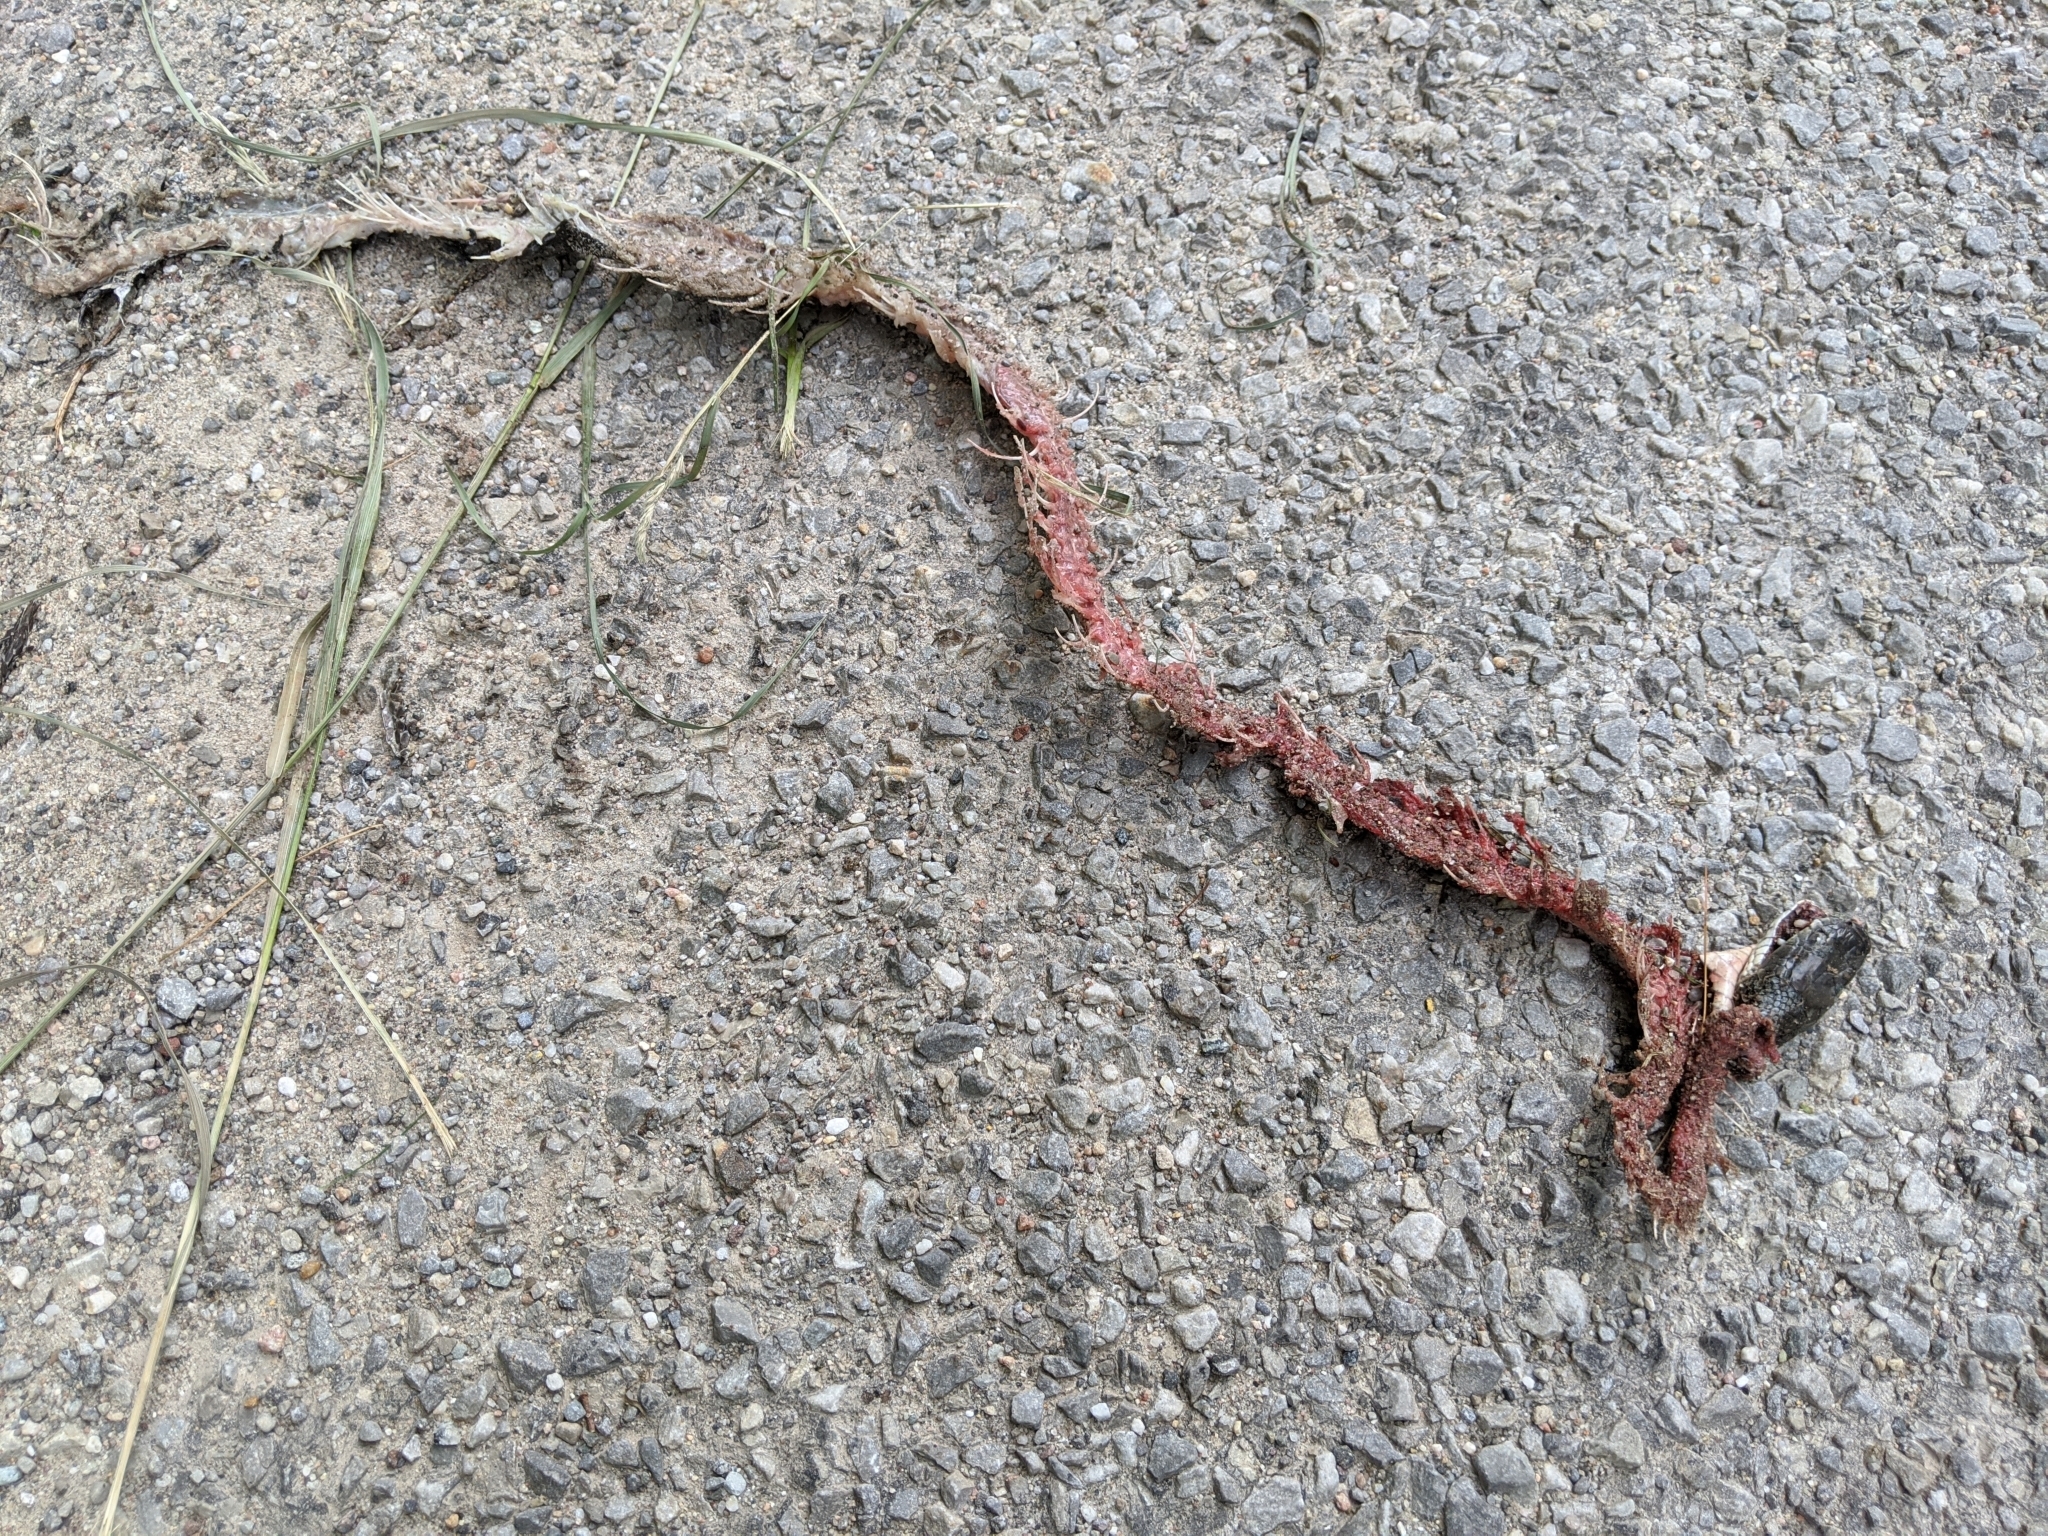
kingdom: Animalia
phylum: Chordata
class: Squamata
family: Colubridae
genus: Pantherophis
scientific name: Pantherophis spiloides
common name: Gray rat snake
